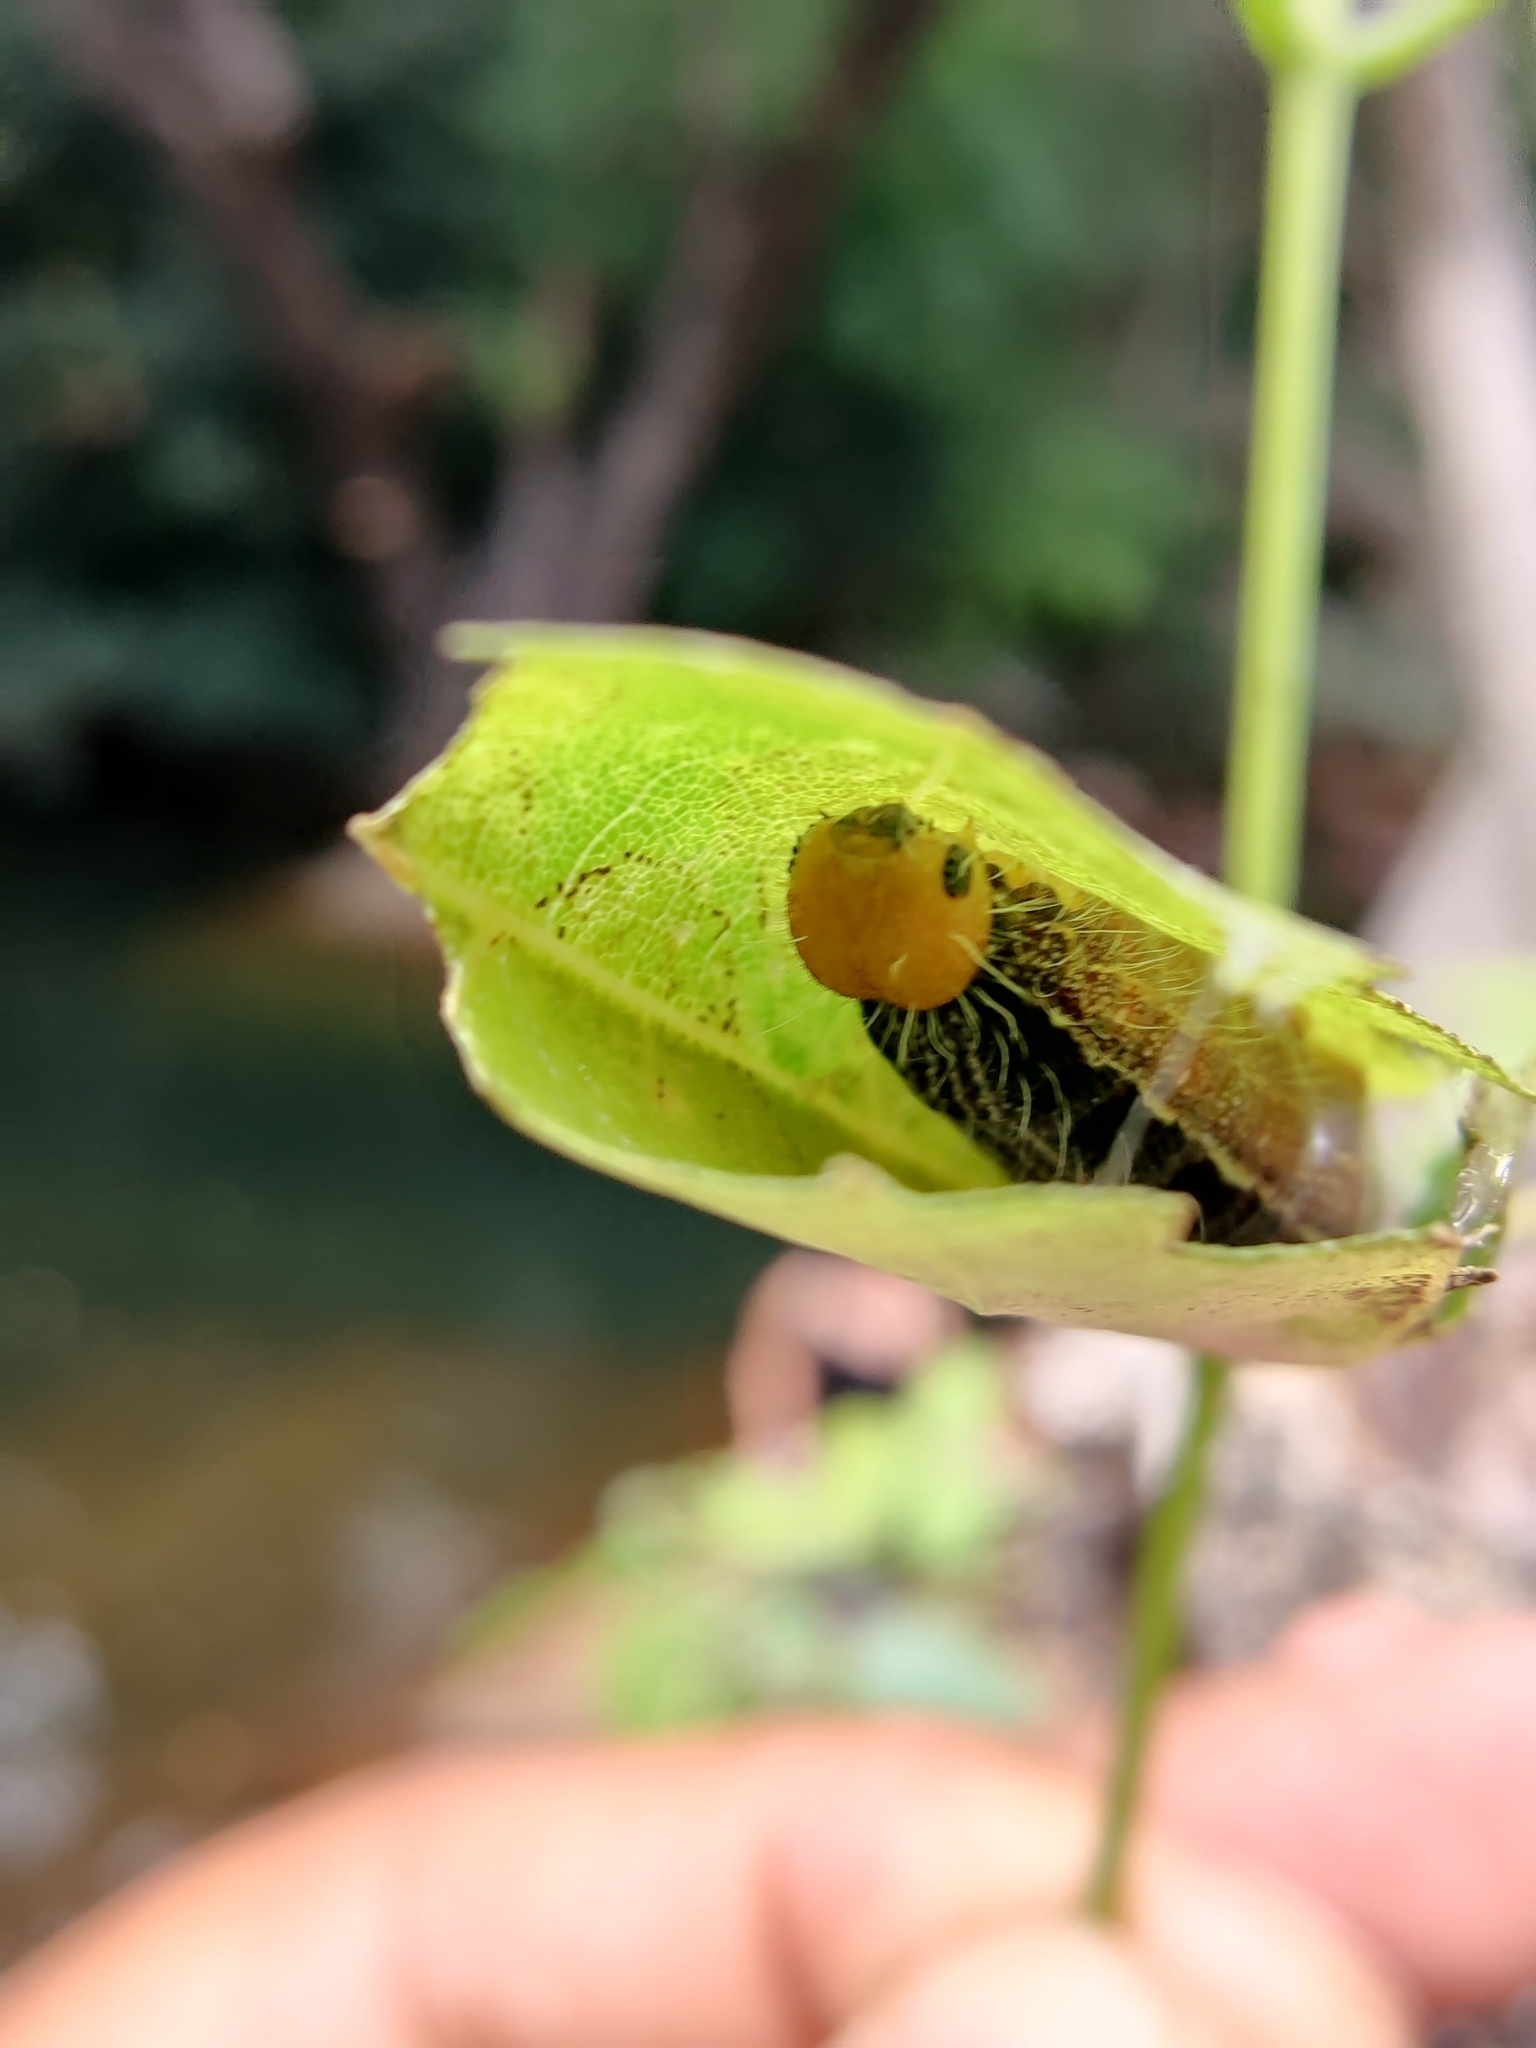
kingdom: Animalia
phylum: Arthropoda
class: Insecta
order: Lepidoptera
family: Hesperiidae
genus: Hasora
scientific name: Hasora chromus
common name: Common banded awl
